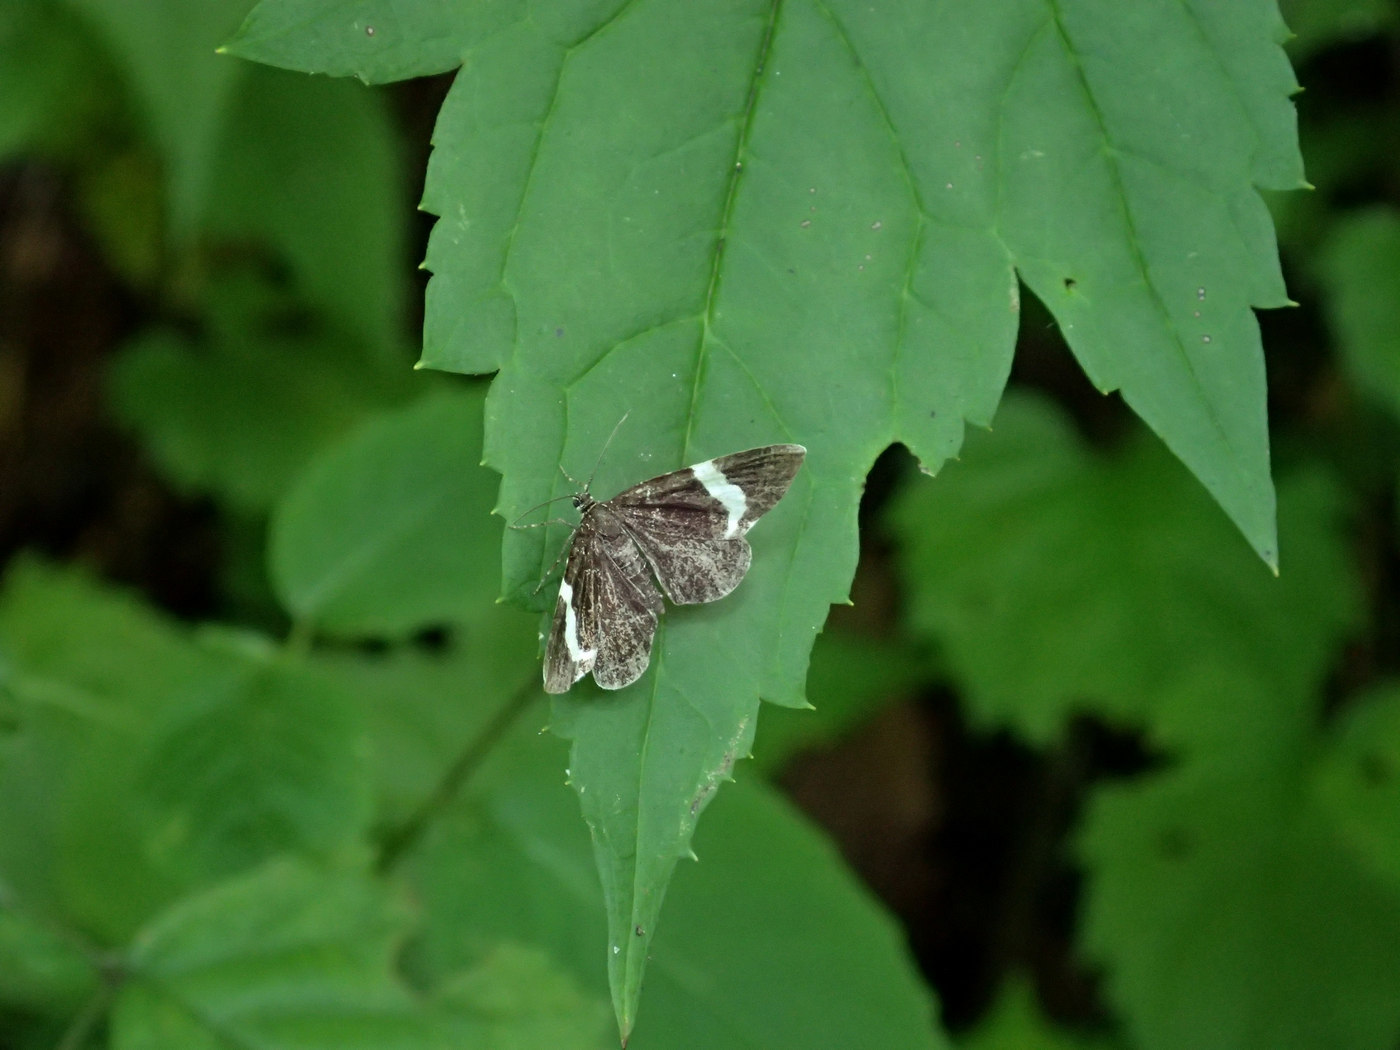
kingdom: Animalia
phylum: Arthropoda
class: Insecta
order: Lepidoptera
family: Geometridae
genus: Trichodezia
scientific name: Trichodezia albovittata
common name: White striped black
